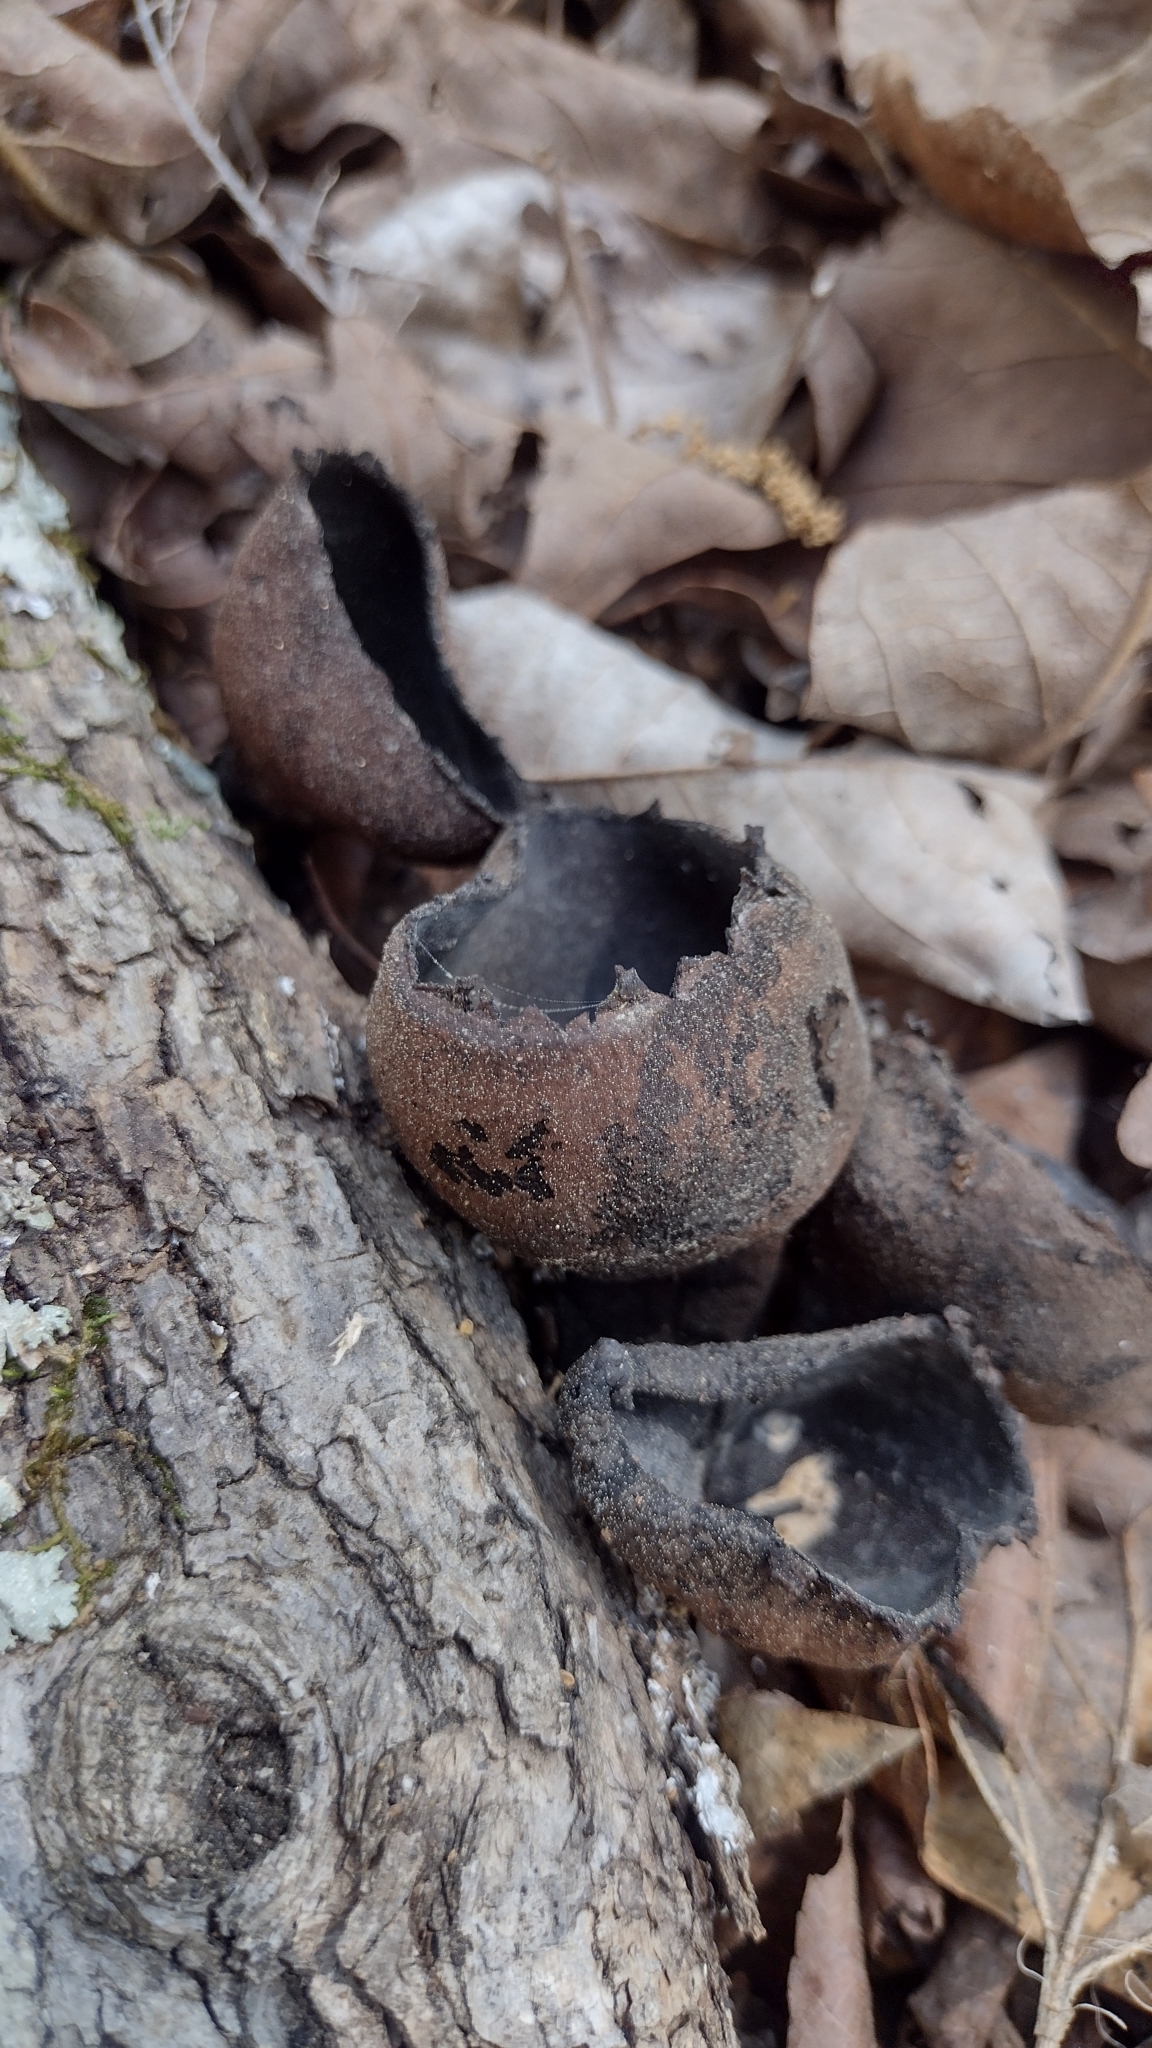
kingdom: Fungi
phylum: Ascomycota
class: Pezizomycetes
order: Pezizales
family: Sarcosomataceae
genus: Urnula
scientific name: Urnula craterium
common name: Devil's urn
